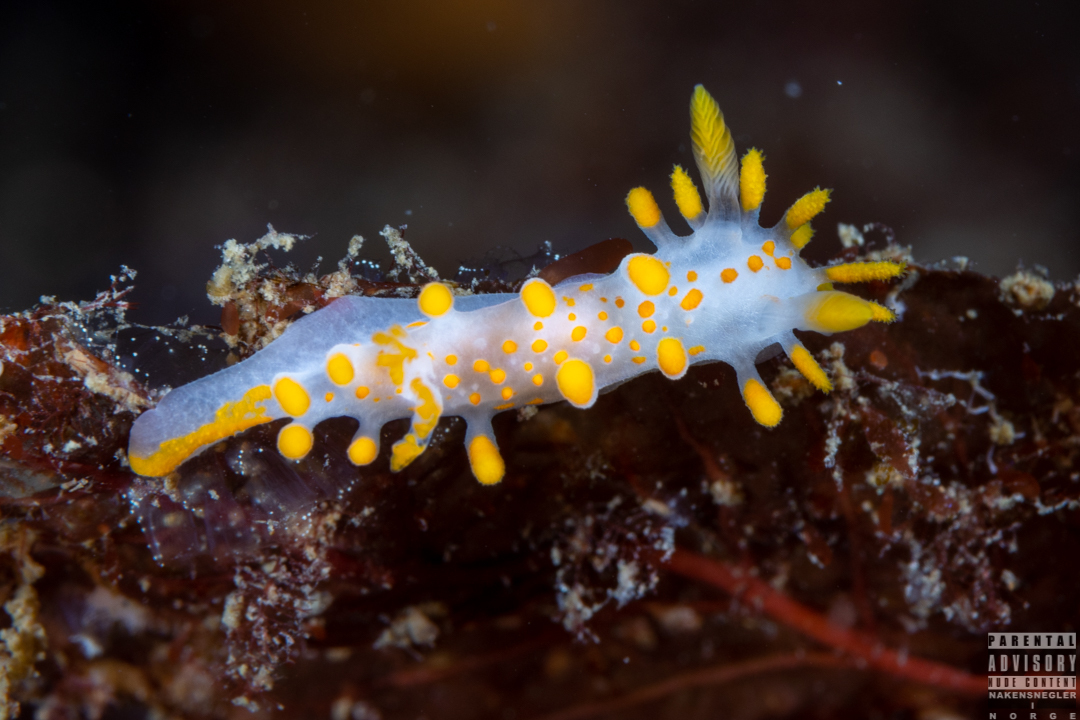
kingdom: Animalia
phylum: Mollusca
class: Gastropoda
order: Nudibranchia
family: Polyceridae
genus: Limacia
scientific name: Limacia clavigera
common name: Orange-clubbed sea slug
